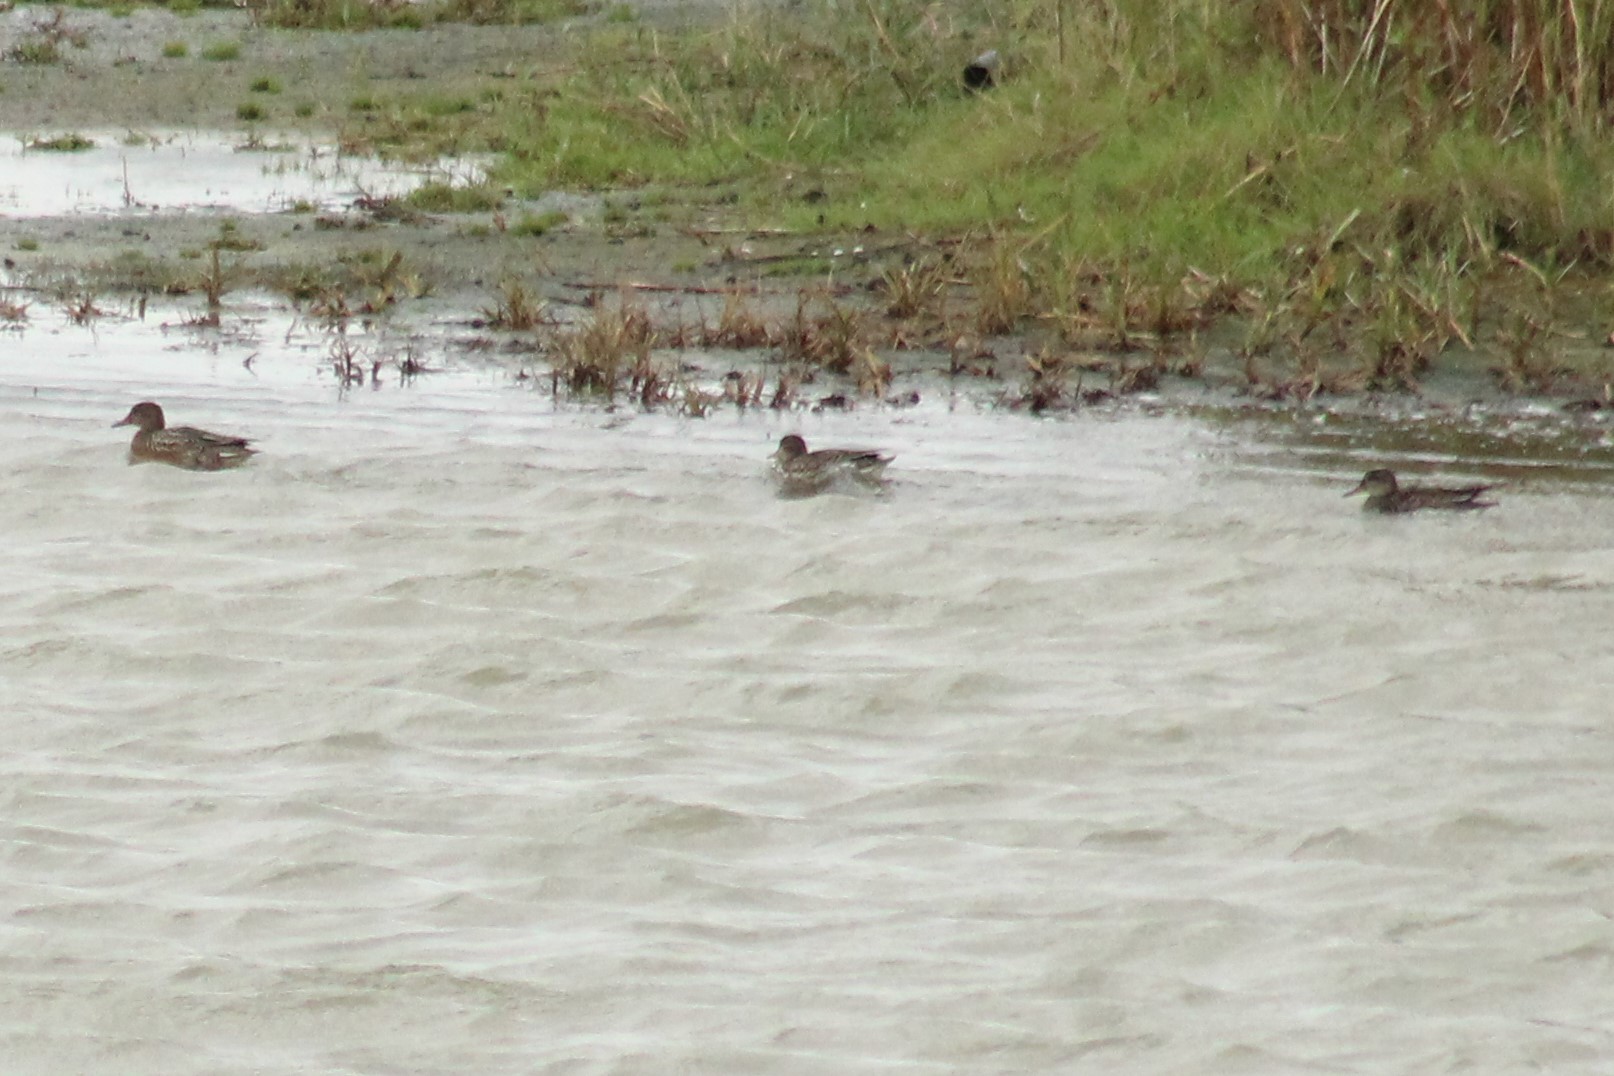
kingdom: Animalia
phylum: Chordata
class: Aves
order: Anseriformes
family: Anatidae
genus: Anas
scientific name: Anas crecca
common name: Eurasian teal
